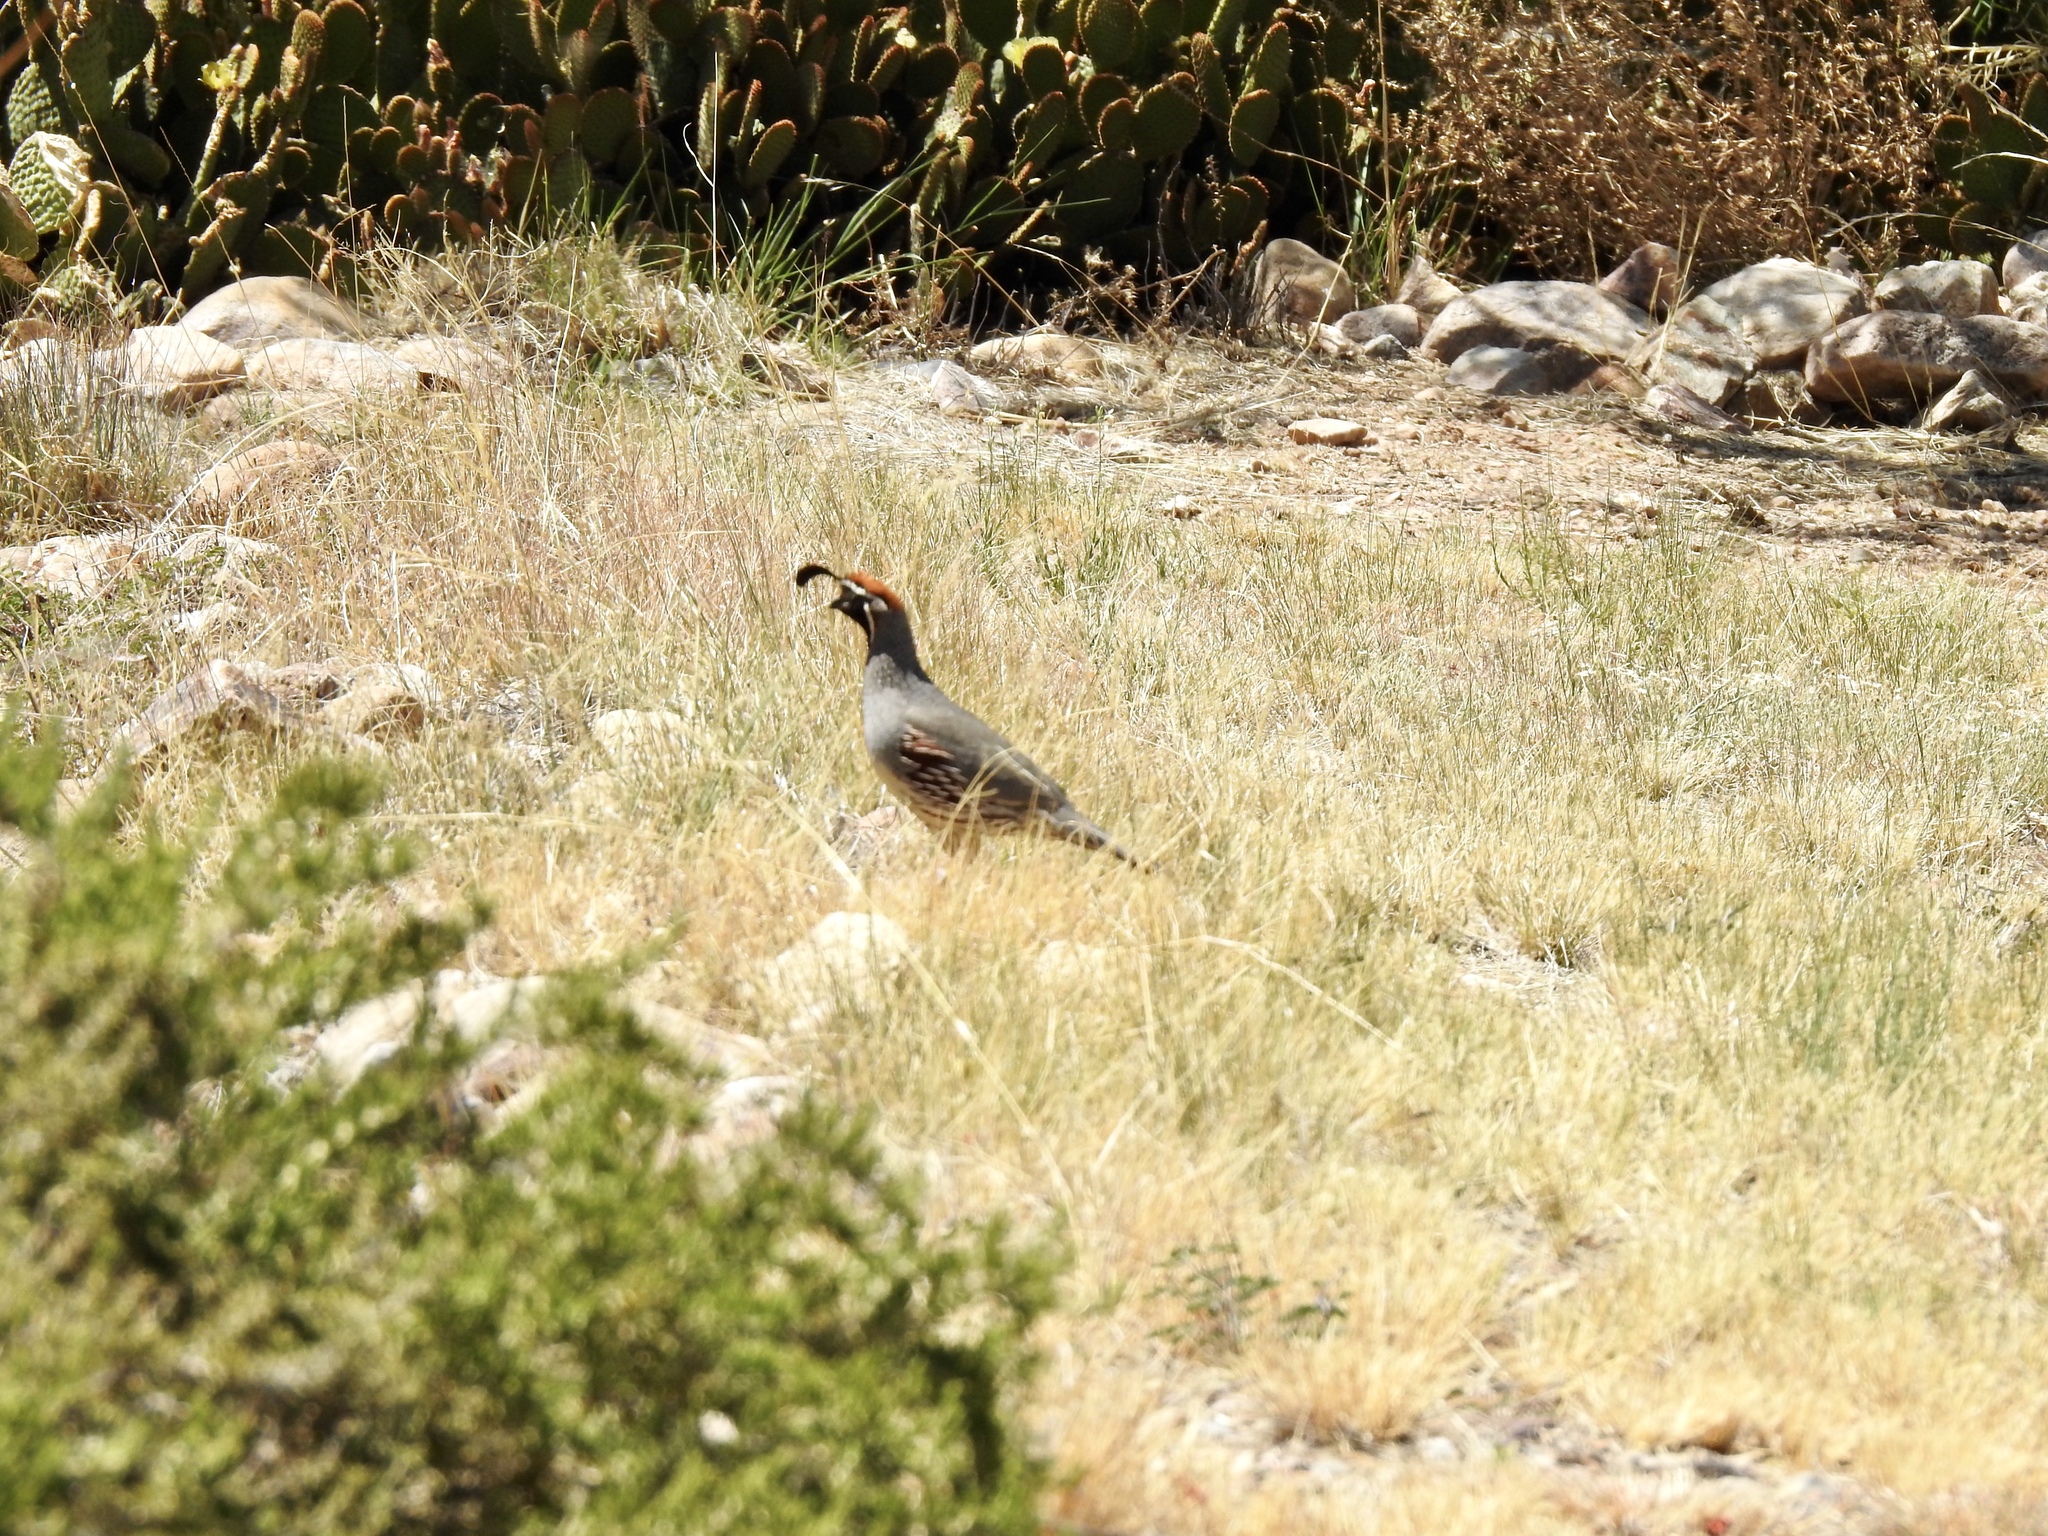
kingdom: Animalia
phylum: Chordata
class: Aves
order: Galliformes
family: Odontophoridae
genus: Callipepla
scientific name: Callipepla gambelii
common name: Gambel's quail
